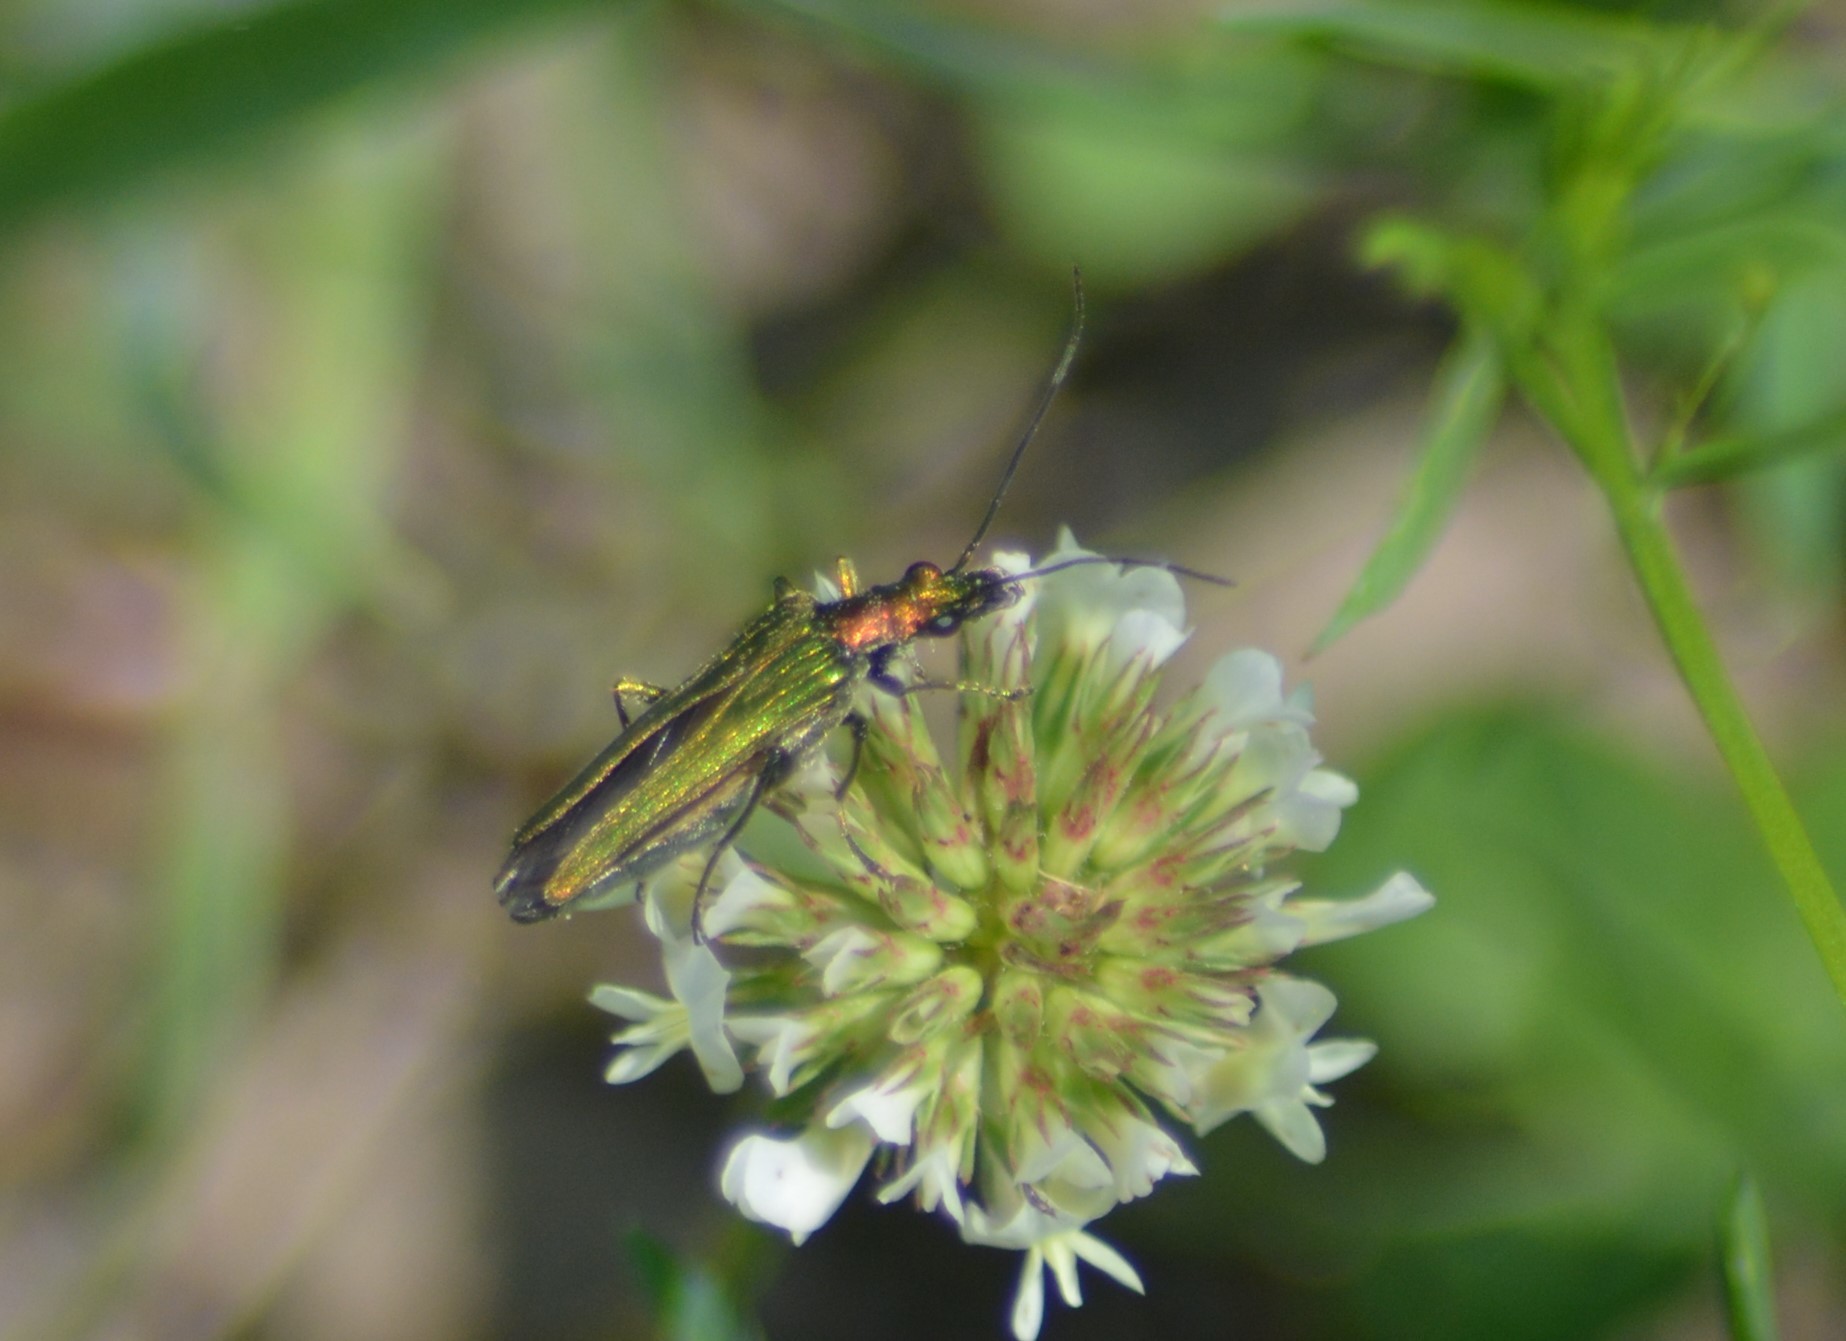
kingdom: Animalia
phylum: Arthropoda
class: Insecta
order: Coleoptera
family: Oedemeridae
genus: Oedemera
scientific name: Oedemera nobilis
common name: Swollen-thighed beetle
